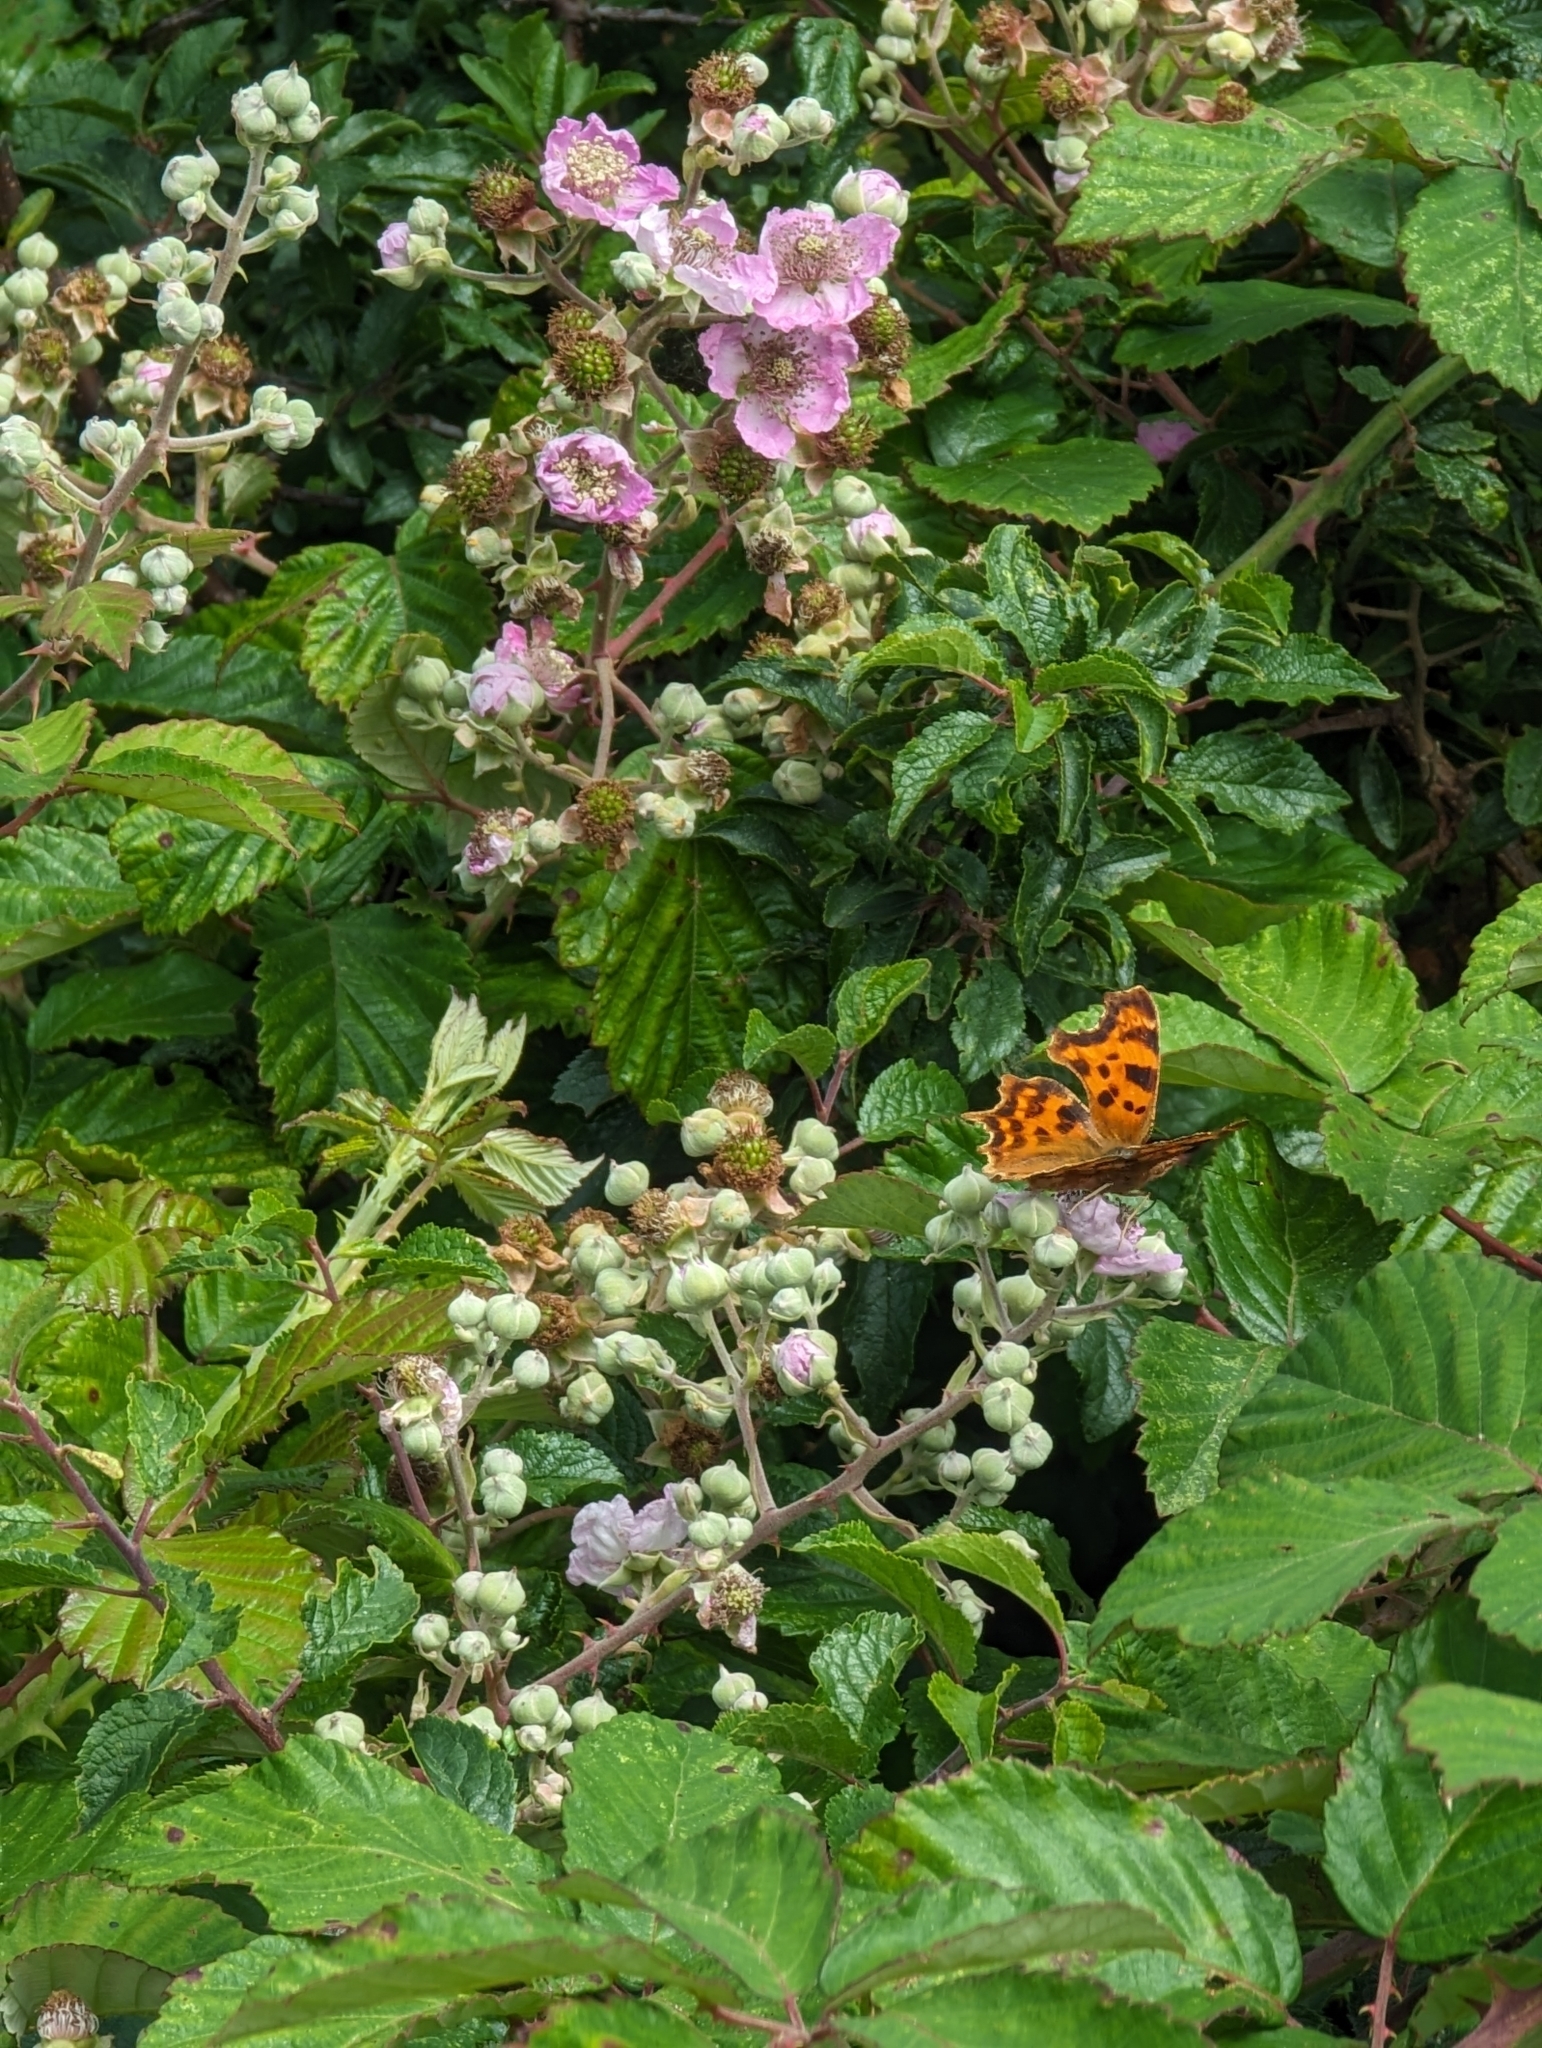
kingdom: Animalia
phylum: Arthropoda
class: Insecta
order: Lepidoptera
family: Nymphalidae
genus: Polygonia
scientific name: Polygonia c-album
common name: Comma
